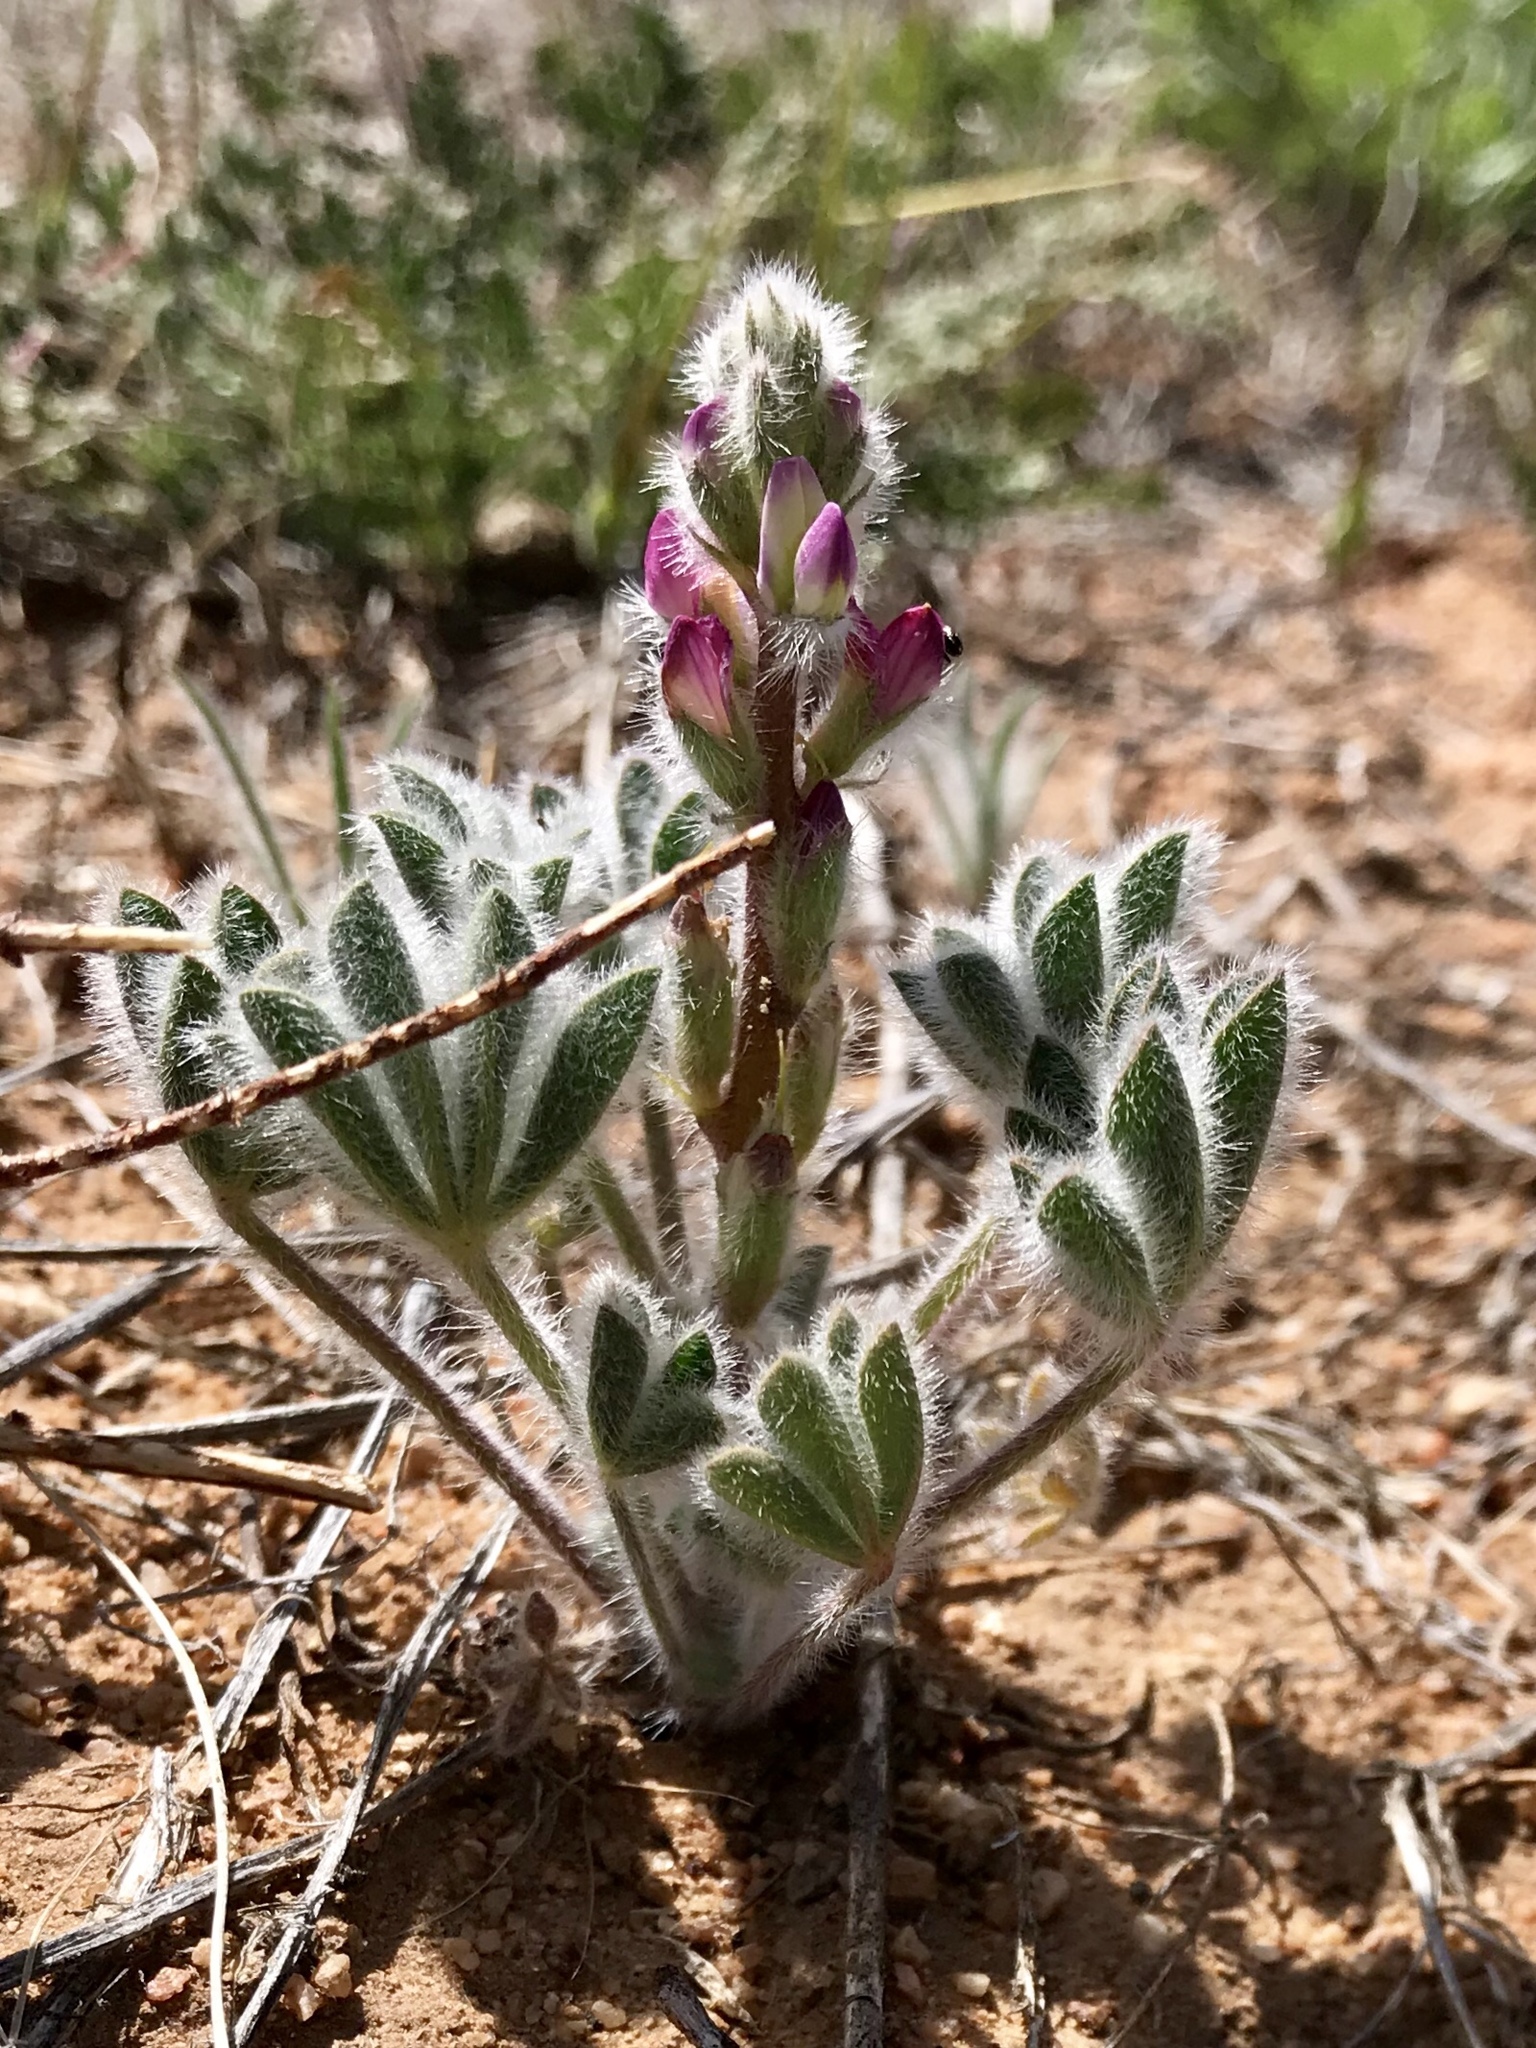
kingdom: Plantae
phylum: Tracheophyta
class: Magnoliopsida
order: Fabales
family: Fabaceae
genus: Lupinus
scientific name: Lupinus concinnus
